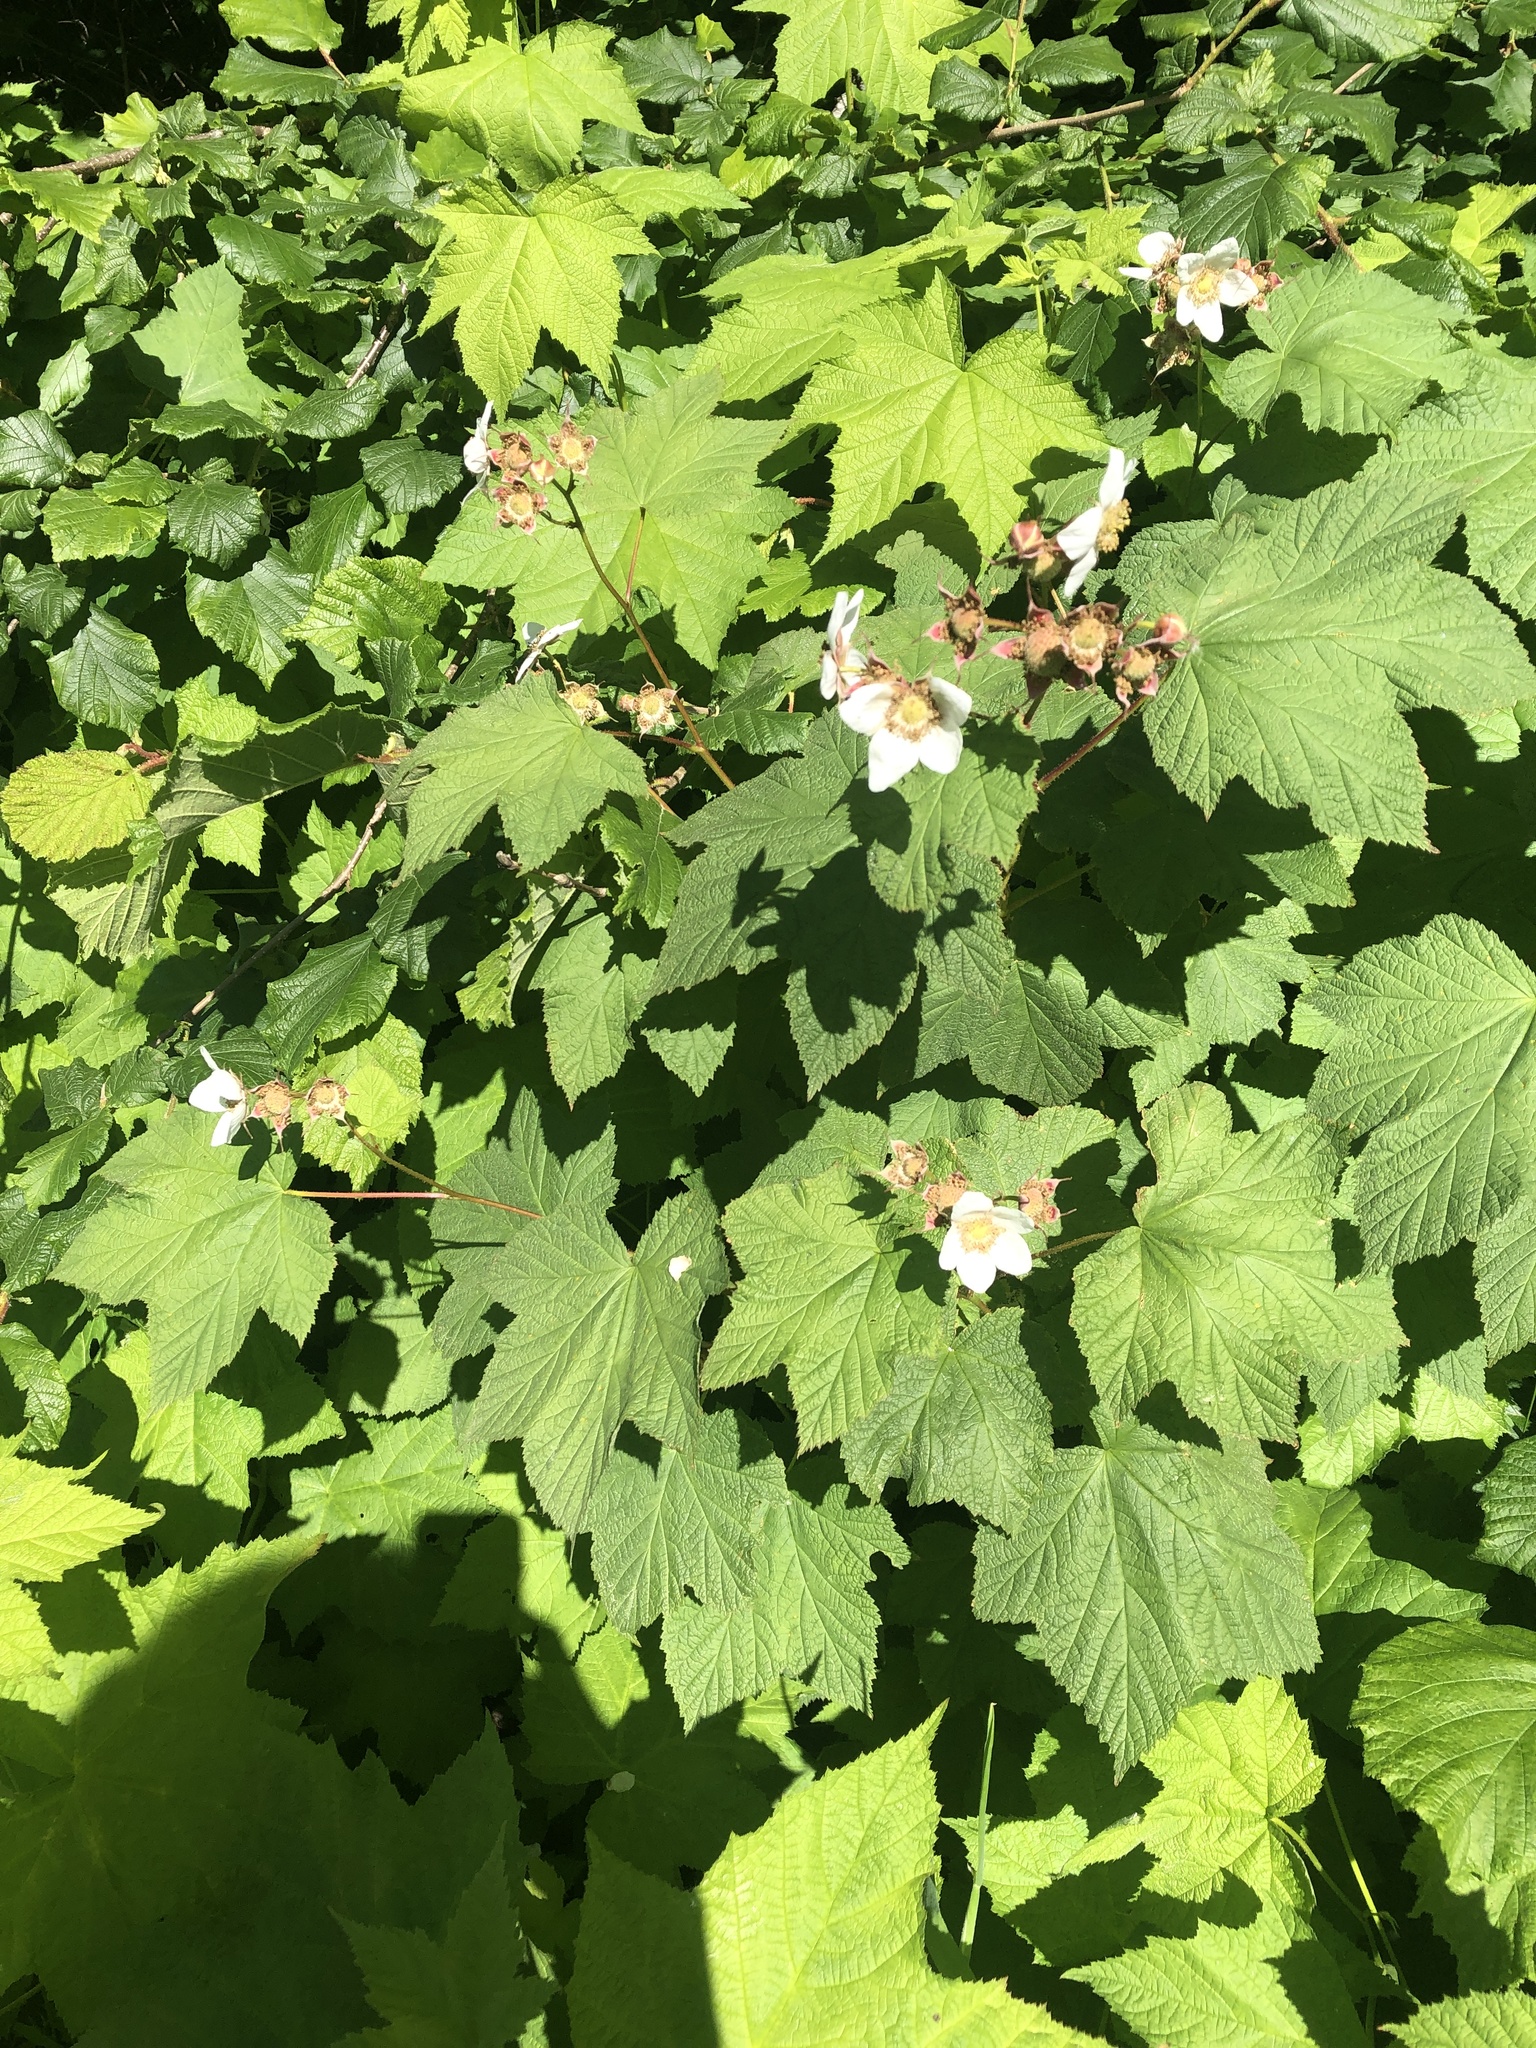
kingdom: Plantae
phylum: Tracheophyta
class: Magnoliopsida
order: Rosales
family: Rosaceae
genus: Rubus
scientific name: Rubus parviflorus
